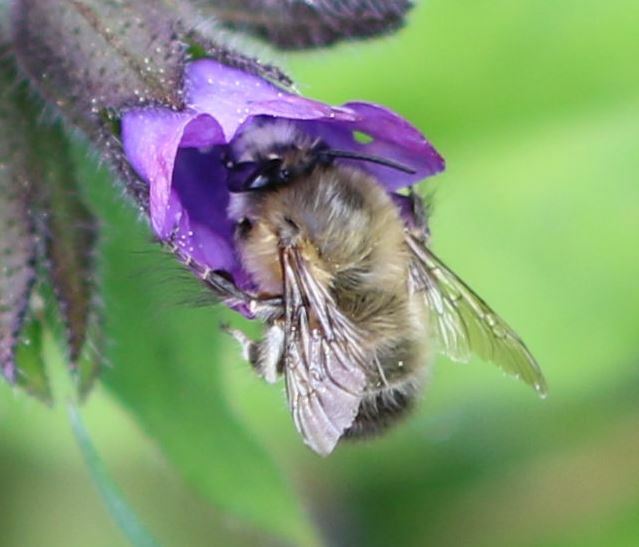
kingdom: Animalia
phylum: Arthropoda
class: Insecta
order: Hymenoptera
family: Apidae
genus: Anthophora
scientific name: Anthophora plumipes
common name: Hairy-footed flower bee
